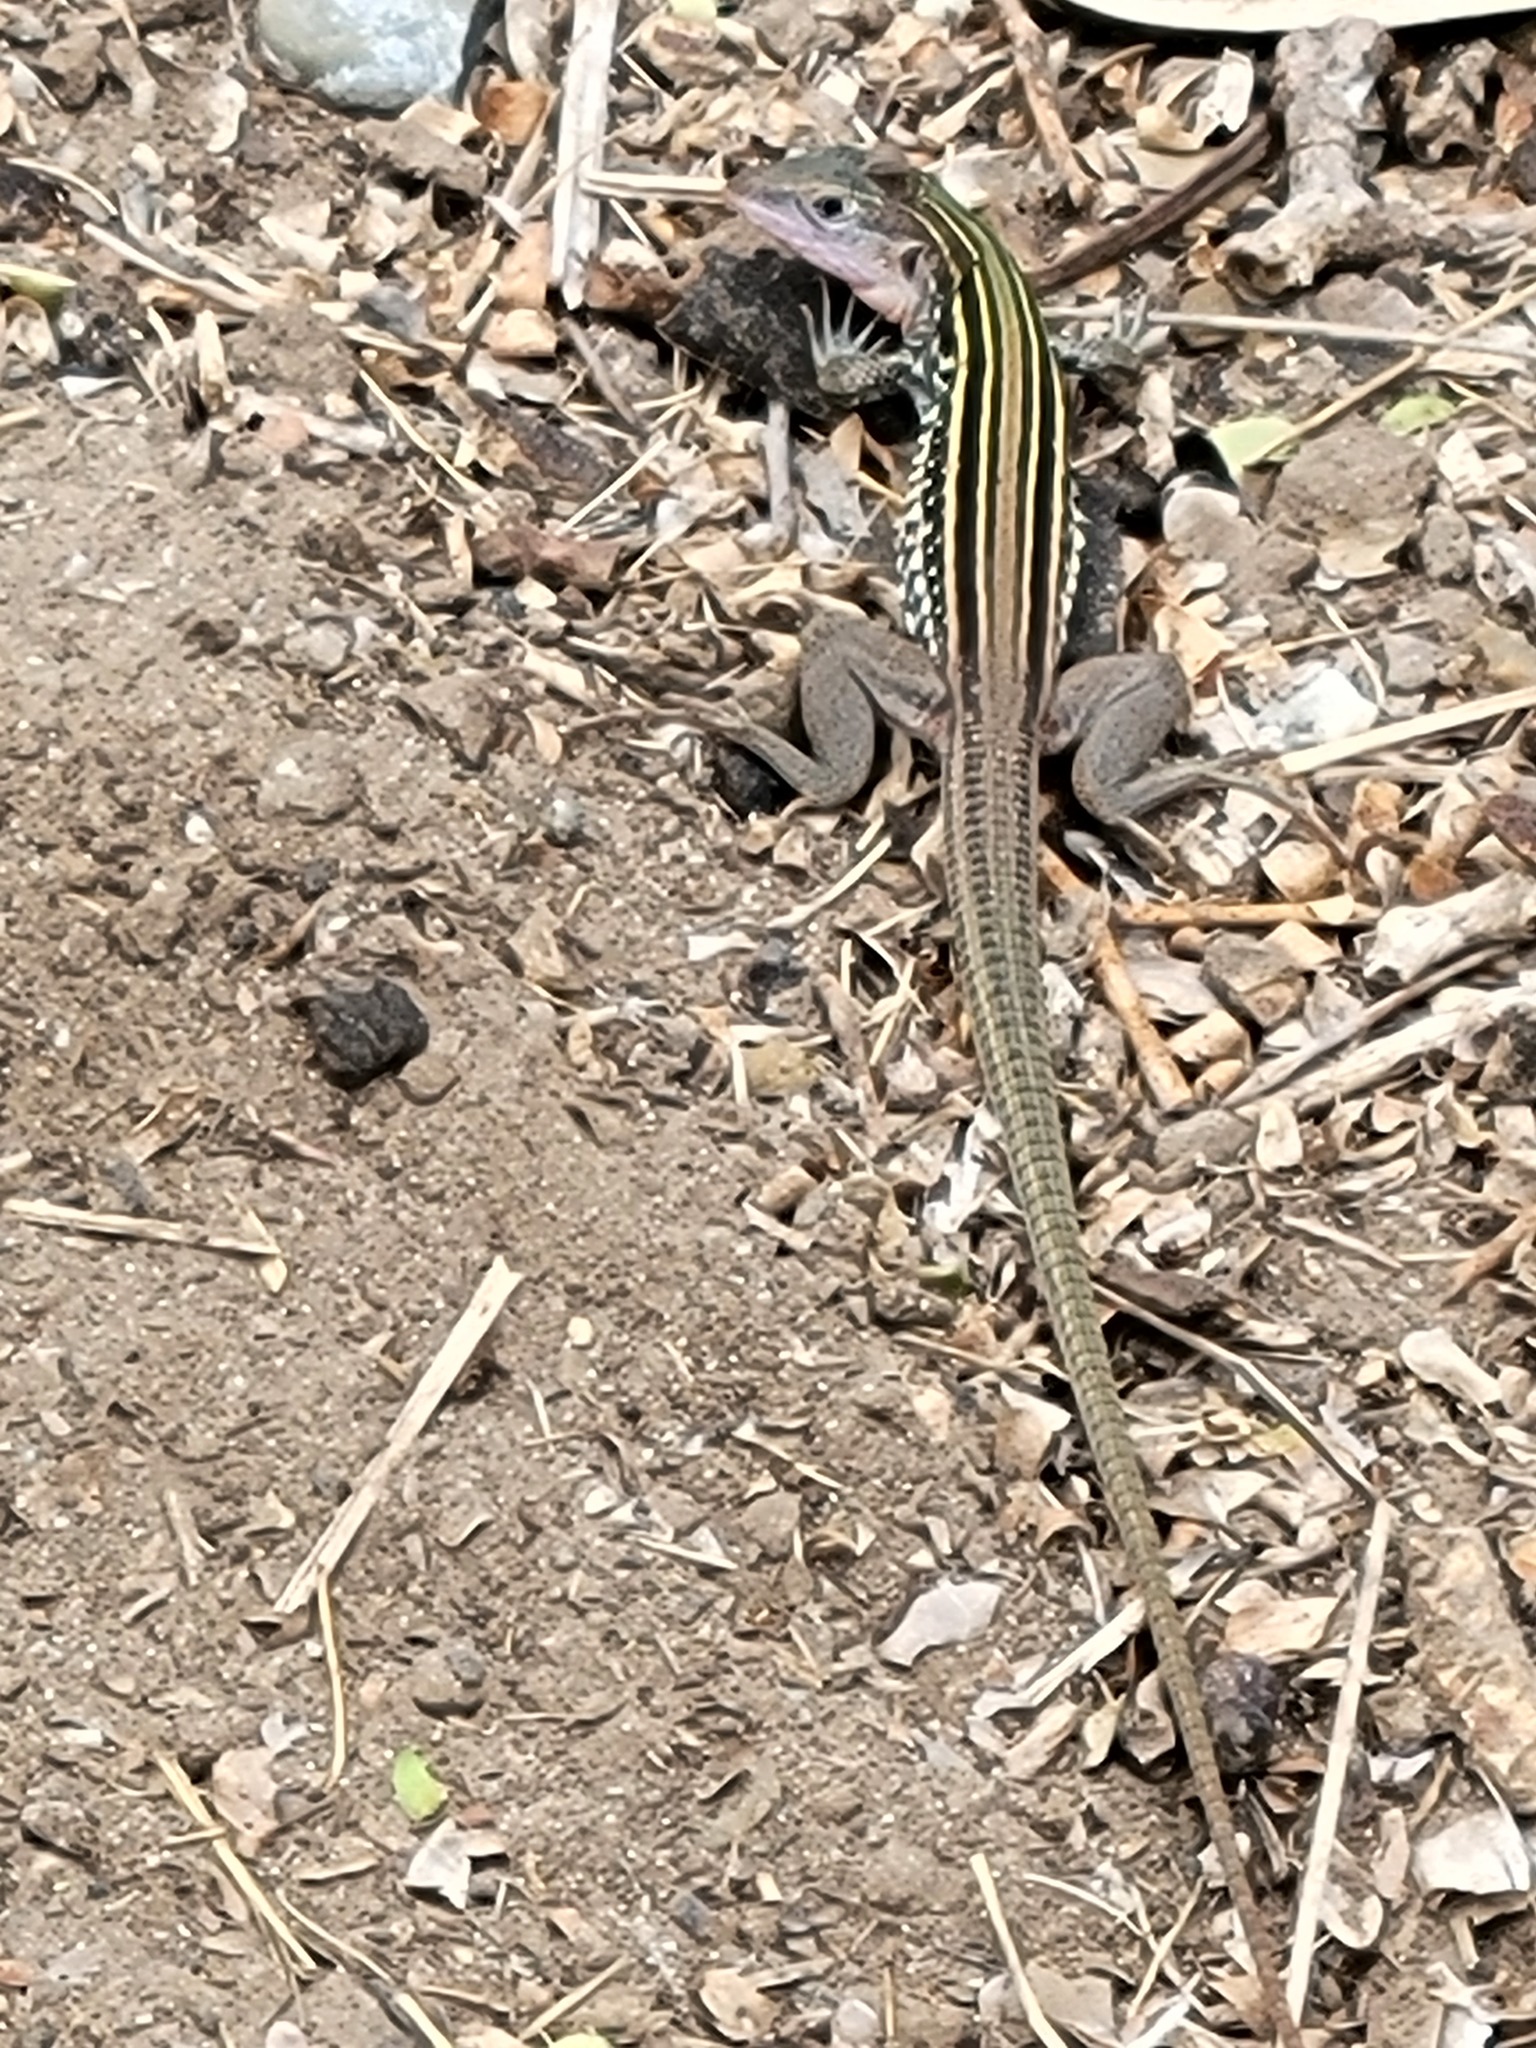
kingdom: Animalia
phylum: Chordata
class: Squamata
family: Teiidae
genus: Aspidoscelis
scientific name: Aspidoscelis gularis
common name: Eastern spotted whiptail
